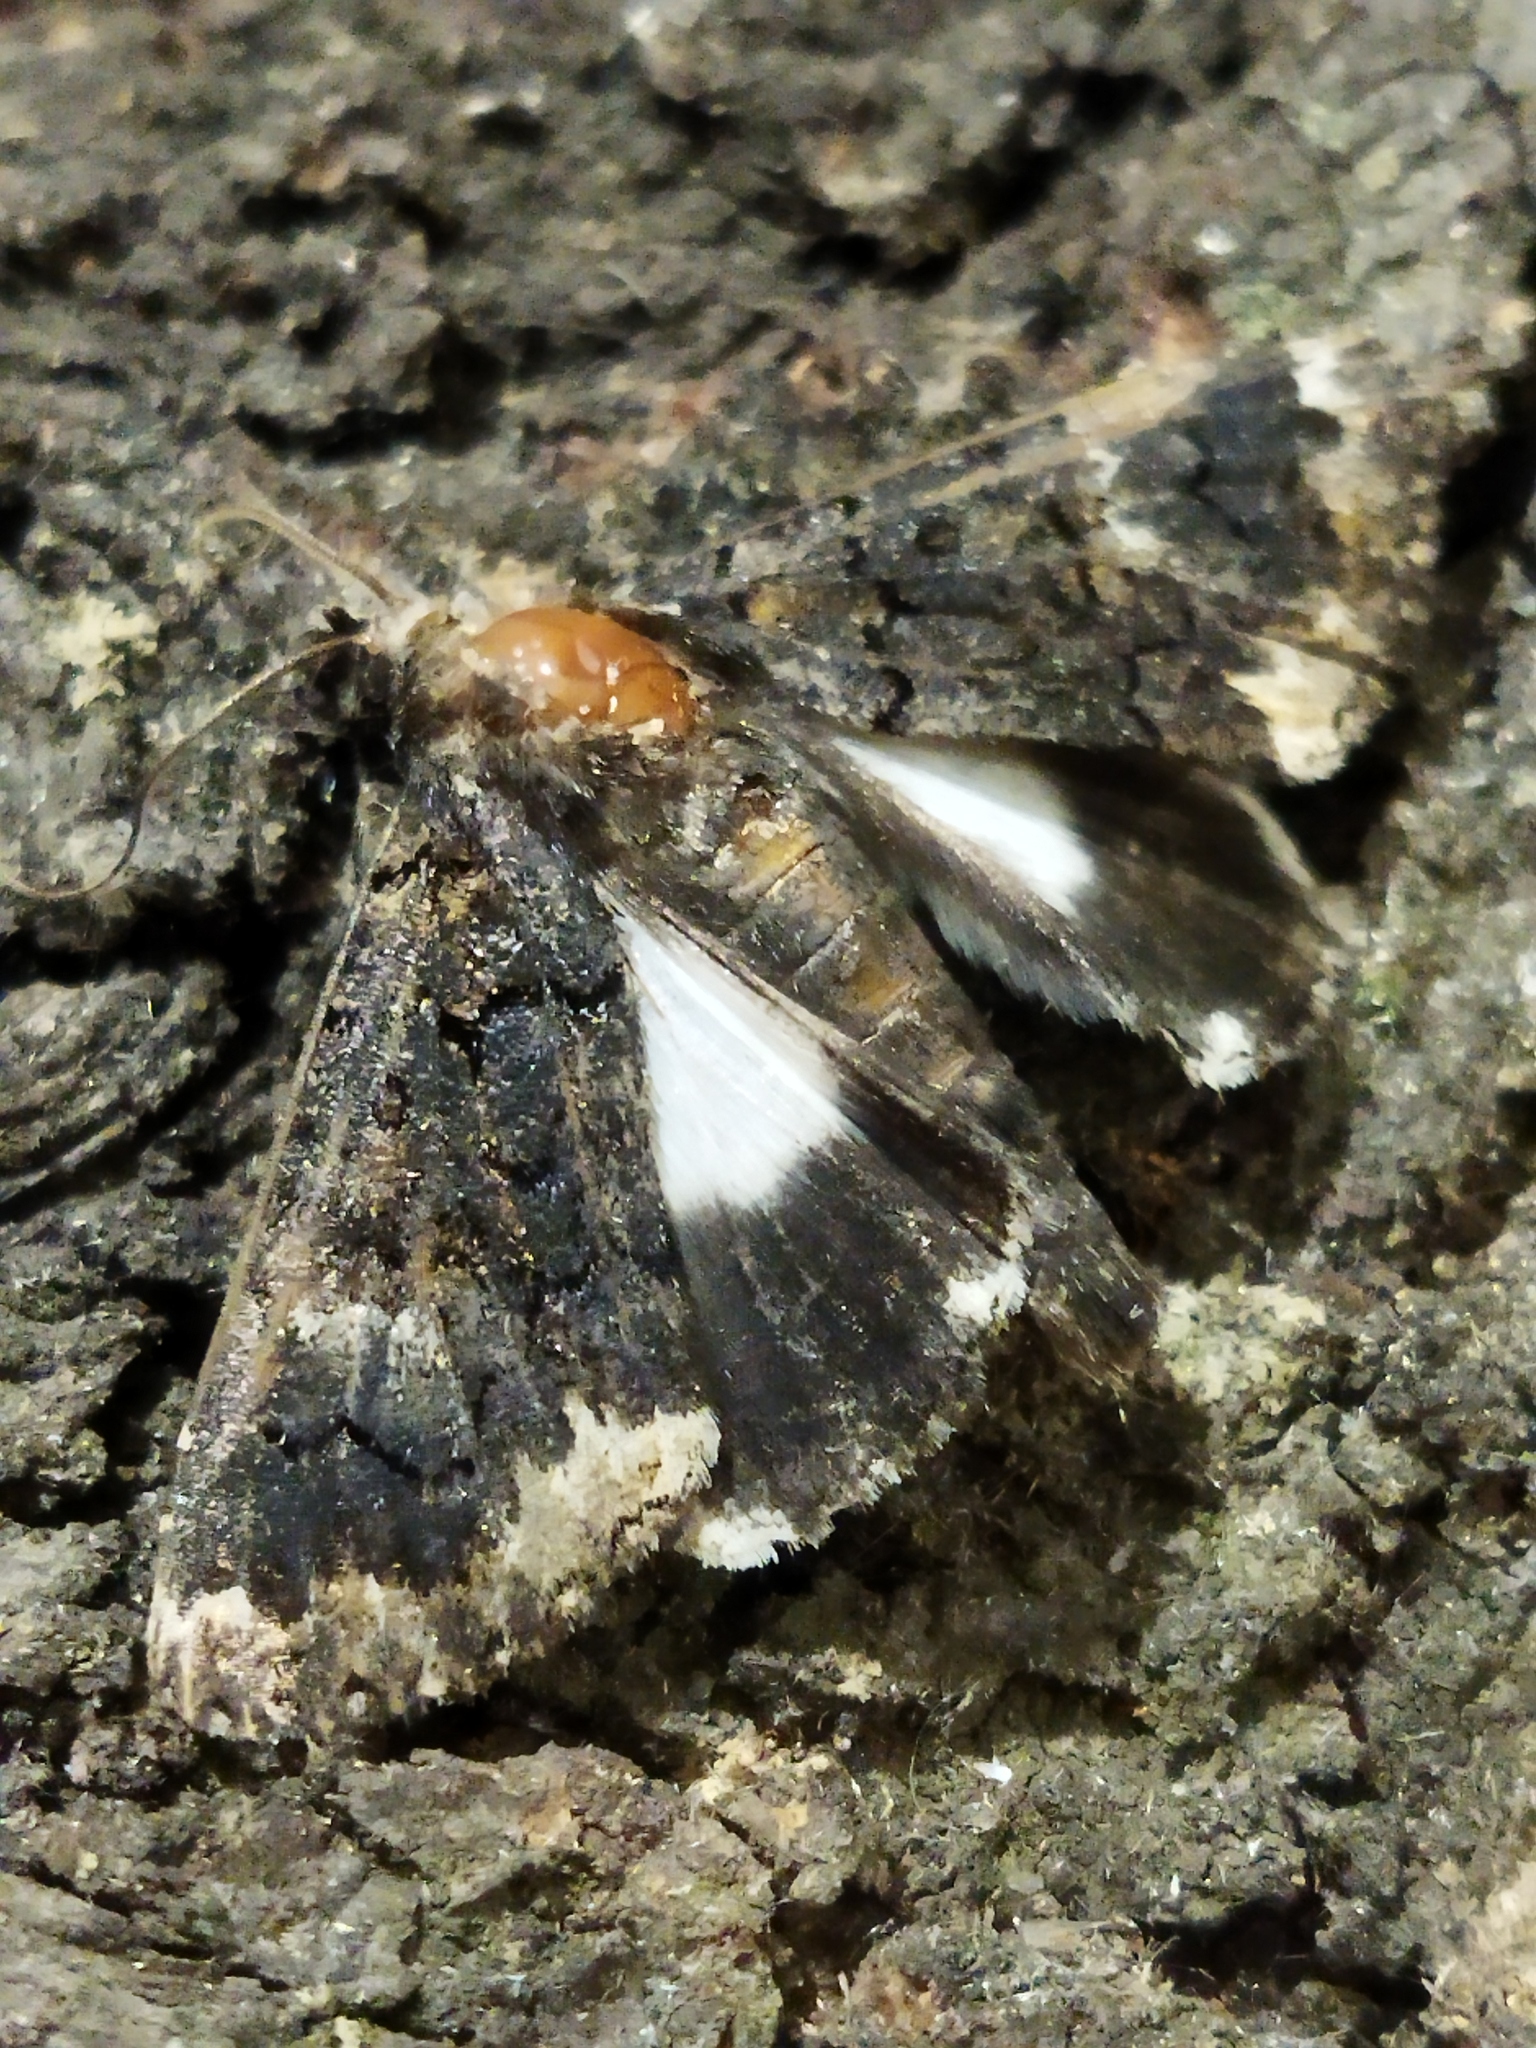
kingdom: Animalia
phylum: Arthropoda
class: Insecta
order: Lepidoptera
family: Erebidae
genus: Catephia
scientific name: Catephia alchymista
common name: Alchymist
